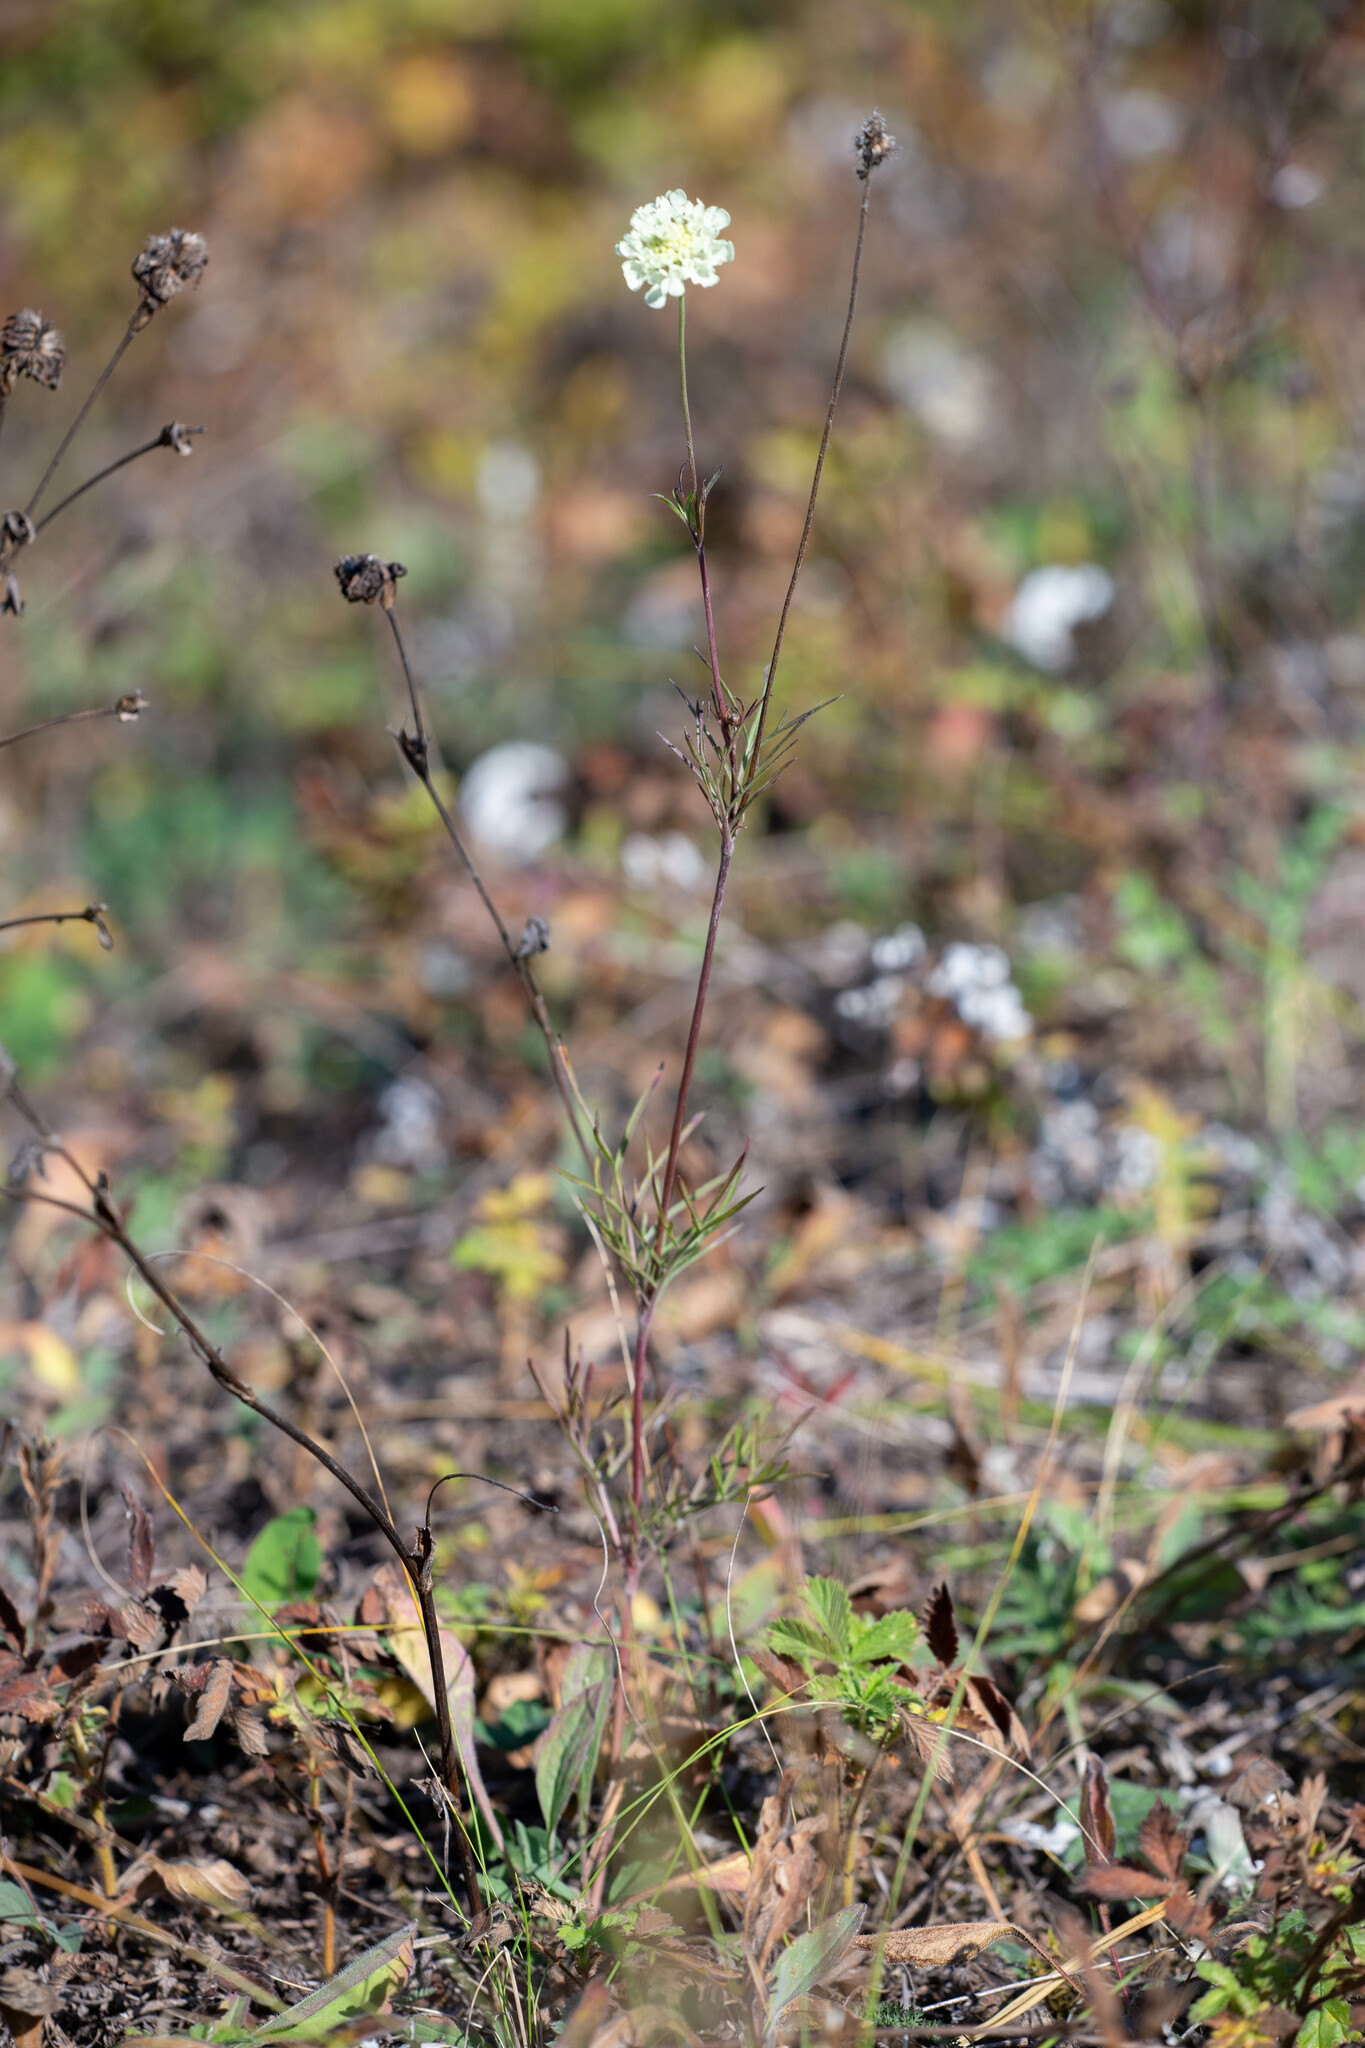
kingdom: Plantae
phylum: Tracheophyta
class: Magnoliopsida
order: Dipsacales
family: Caprifoliaceae
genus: Scabiosa
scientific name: Scabiosa ochroleuca
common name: Cream pincushions
